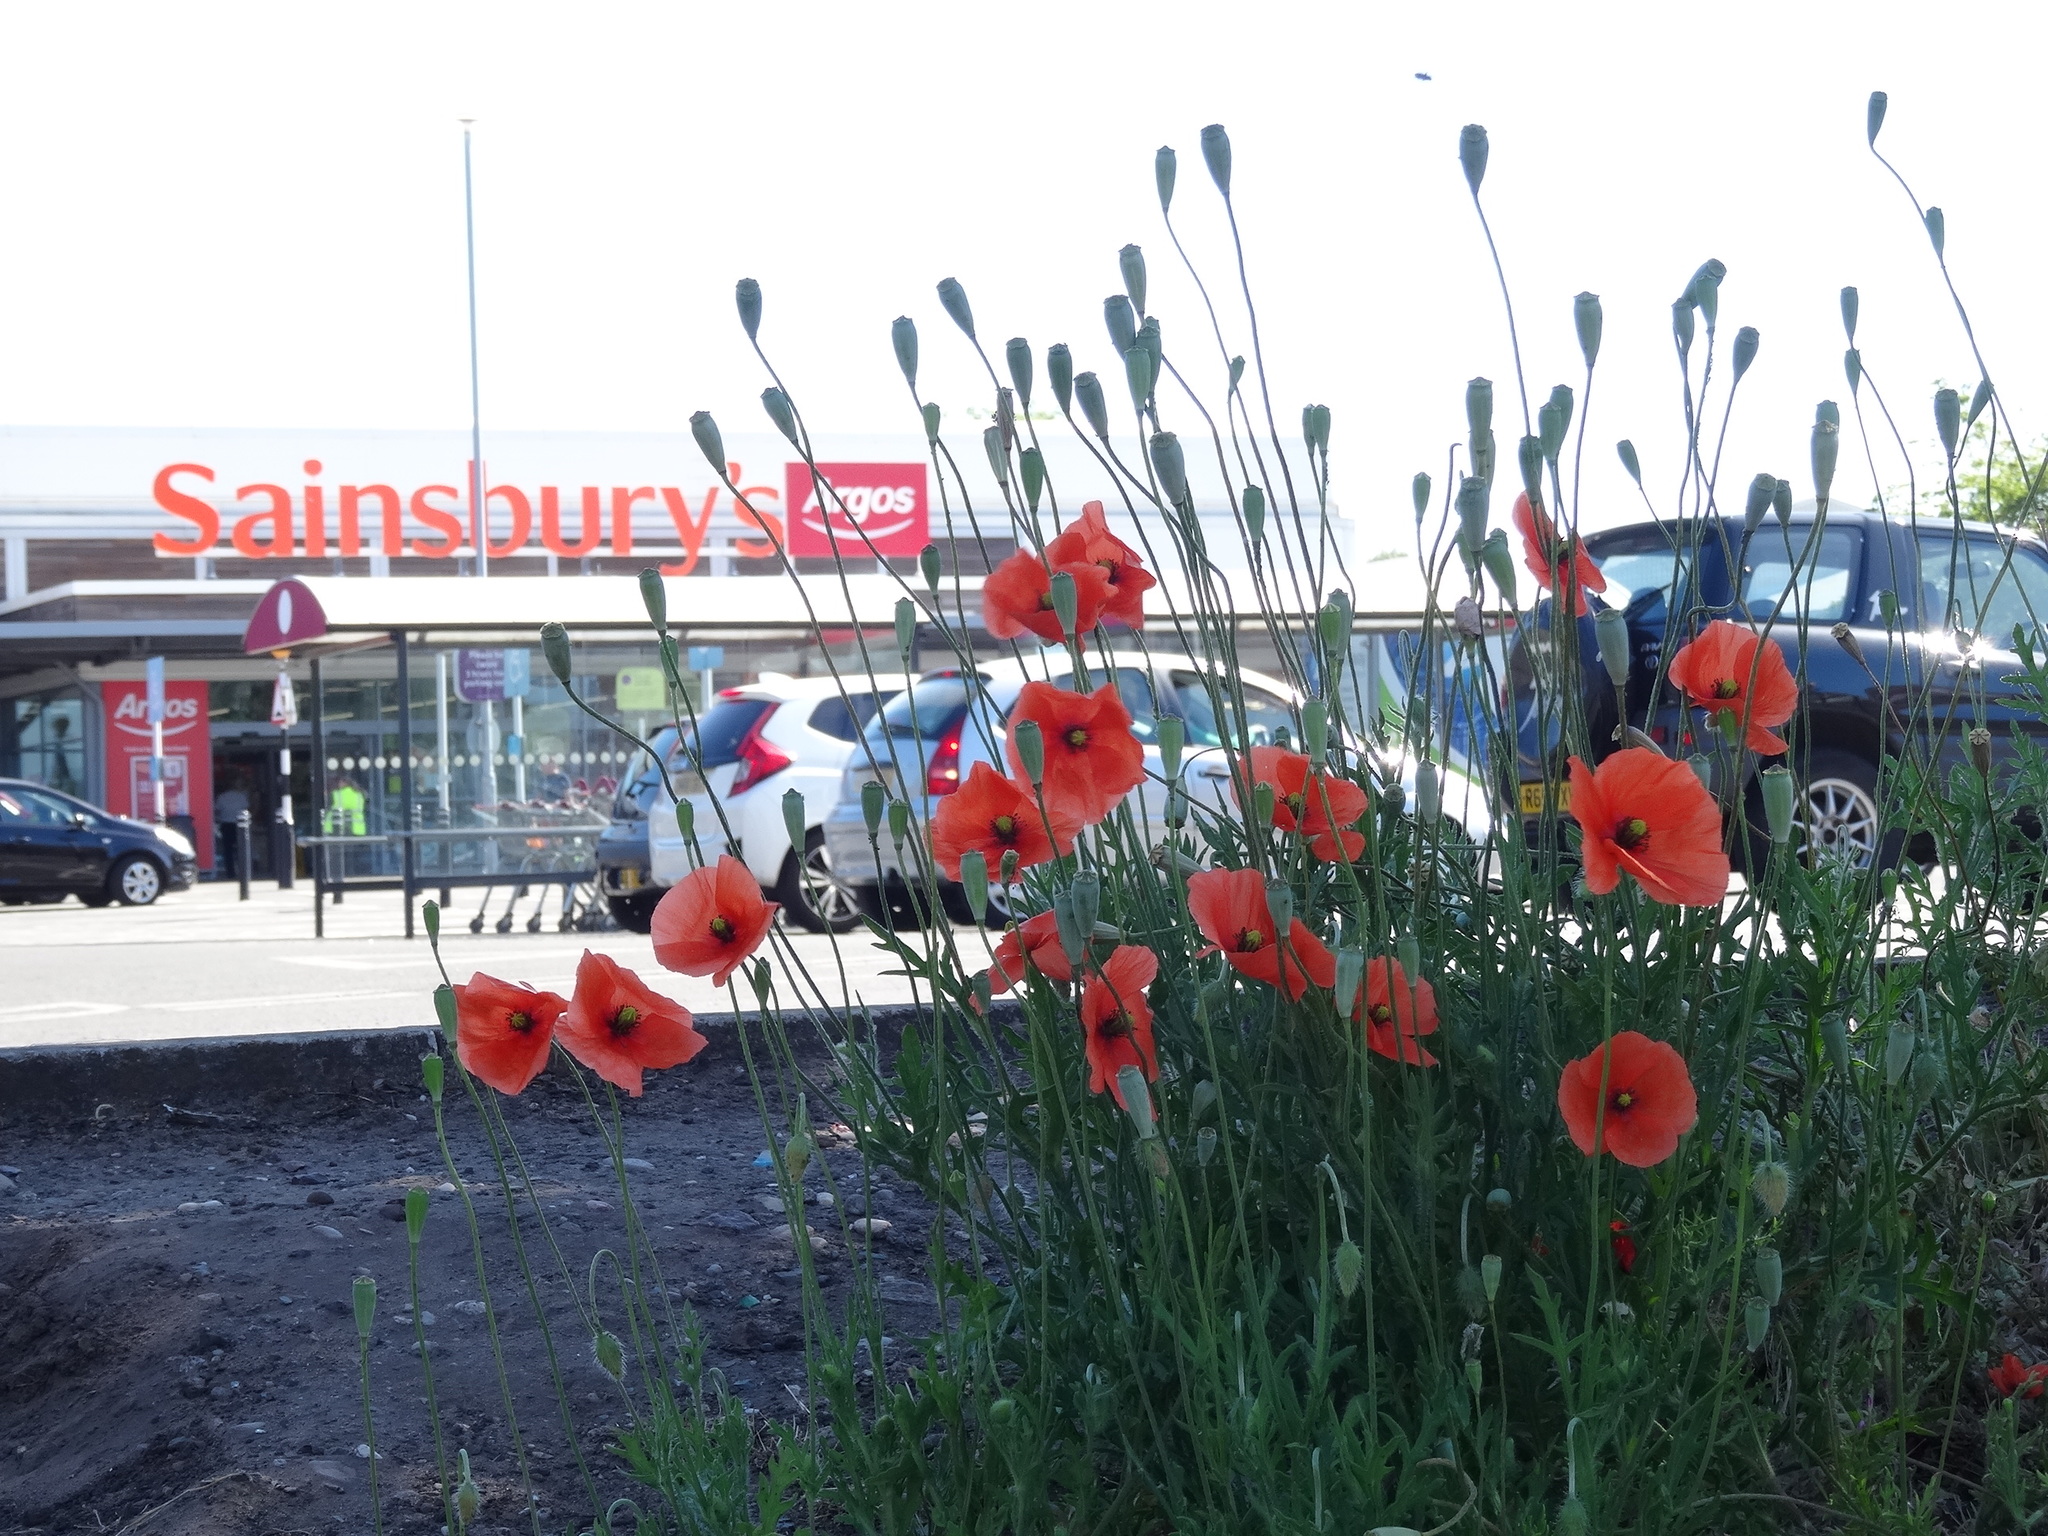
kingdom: Plantae
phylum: Tracheophyta
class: Magnoliopsida
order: Ranunculales
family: Papaveraceae
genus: Papaver
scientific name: Papaver dubium
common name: Long-headed poppy
